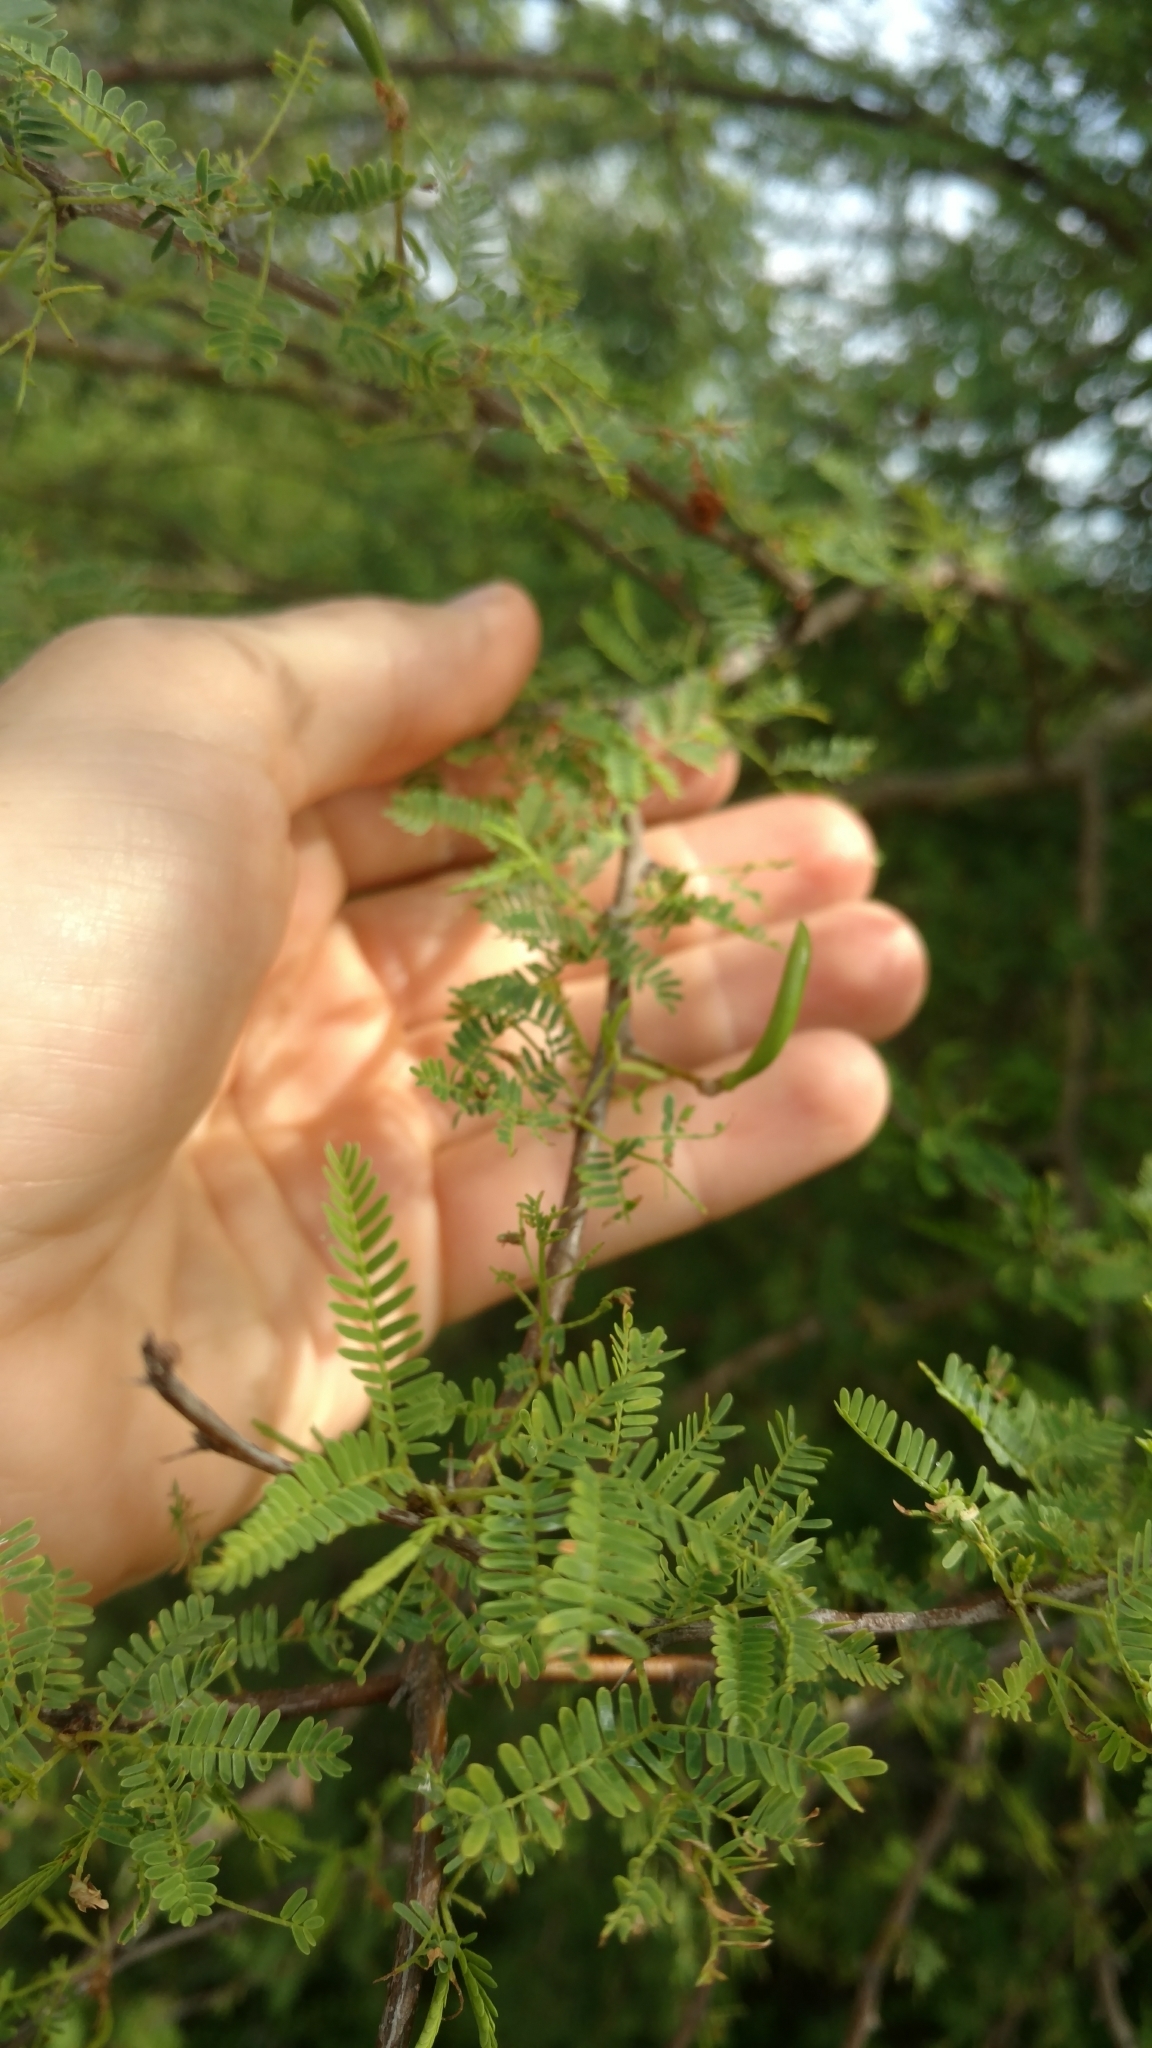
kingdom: Plantae
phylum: Tracheophyta
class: Magnoliopsida
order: Fabales
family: Fabaceae
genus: Vachellia
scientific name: Vachellia farnesiana
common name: Sweet acacia
